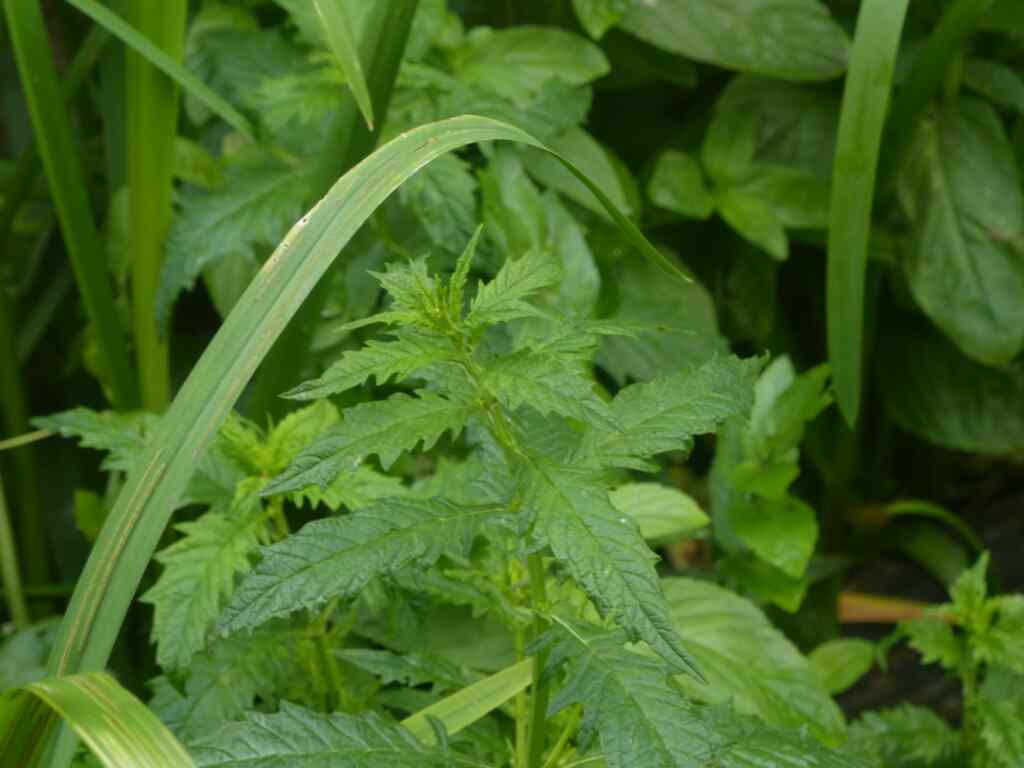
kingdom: Plantae
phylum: Tracheophyta
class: Magnoliopsida
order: Lamiales
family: Lamiaceae
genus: Lycopus
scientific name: Lycopus europaeus
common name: European bugleweed
